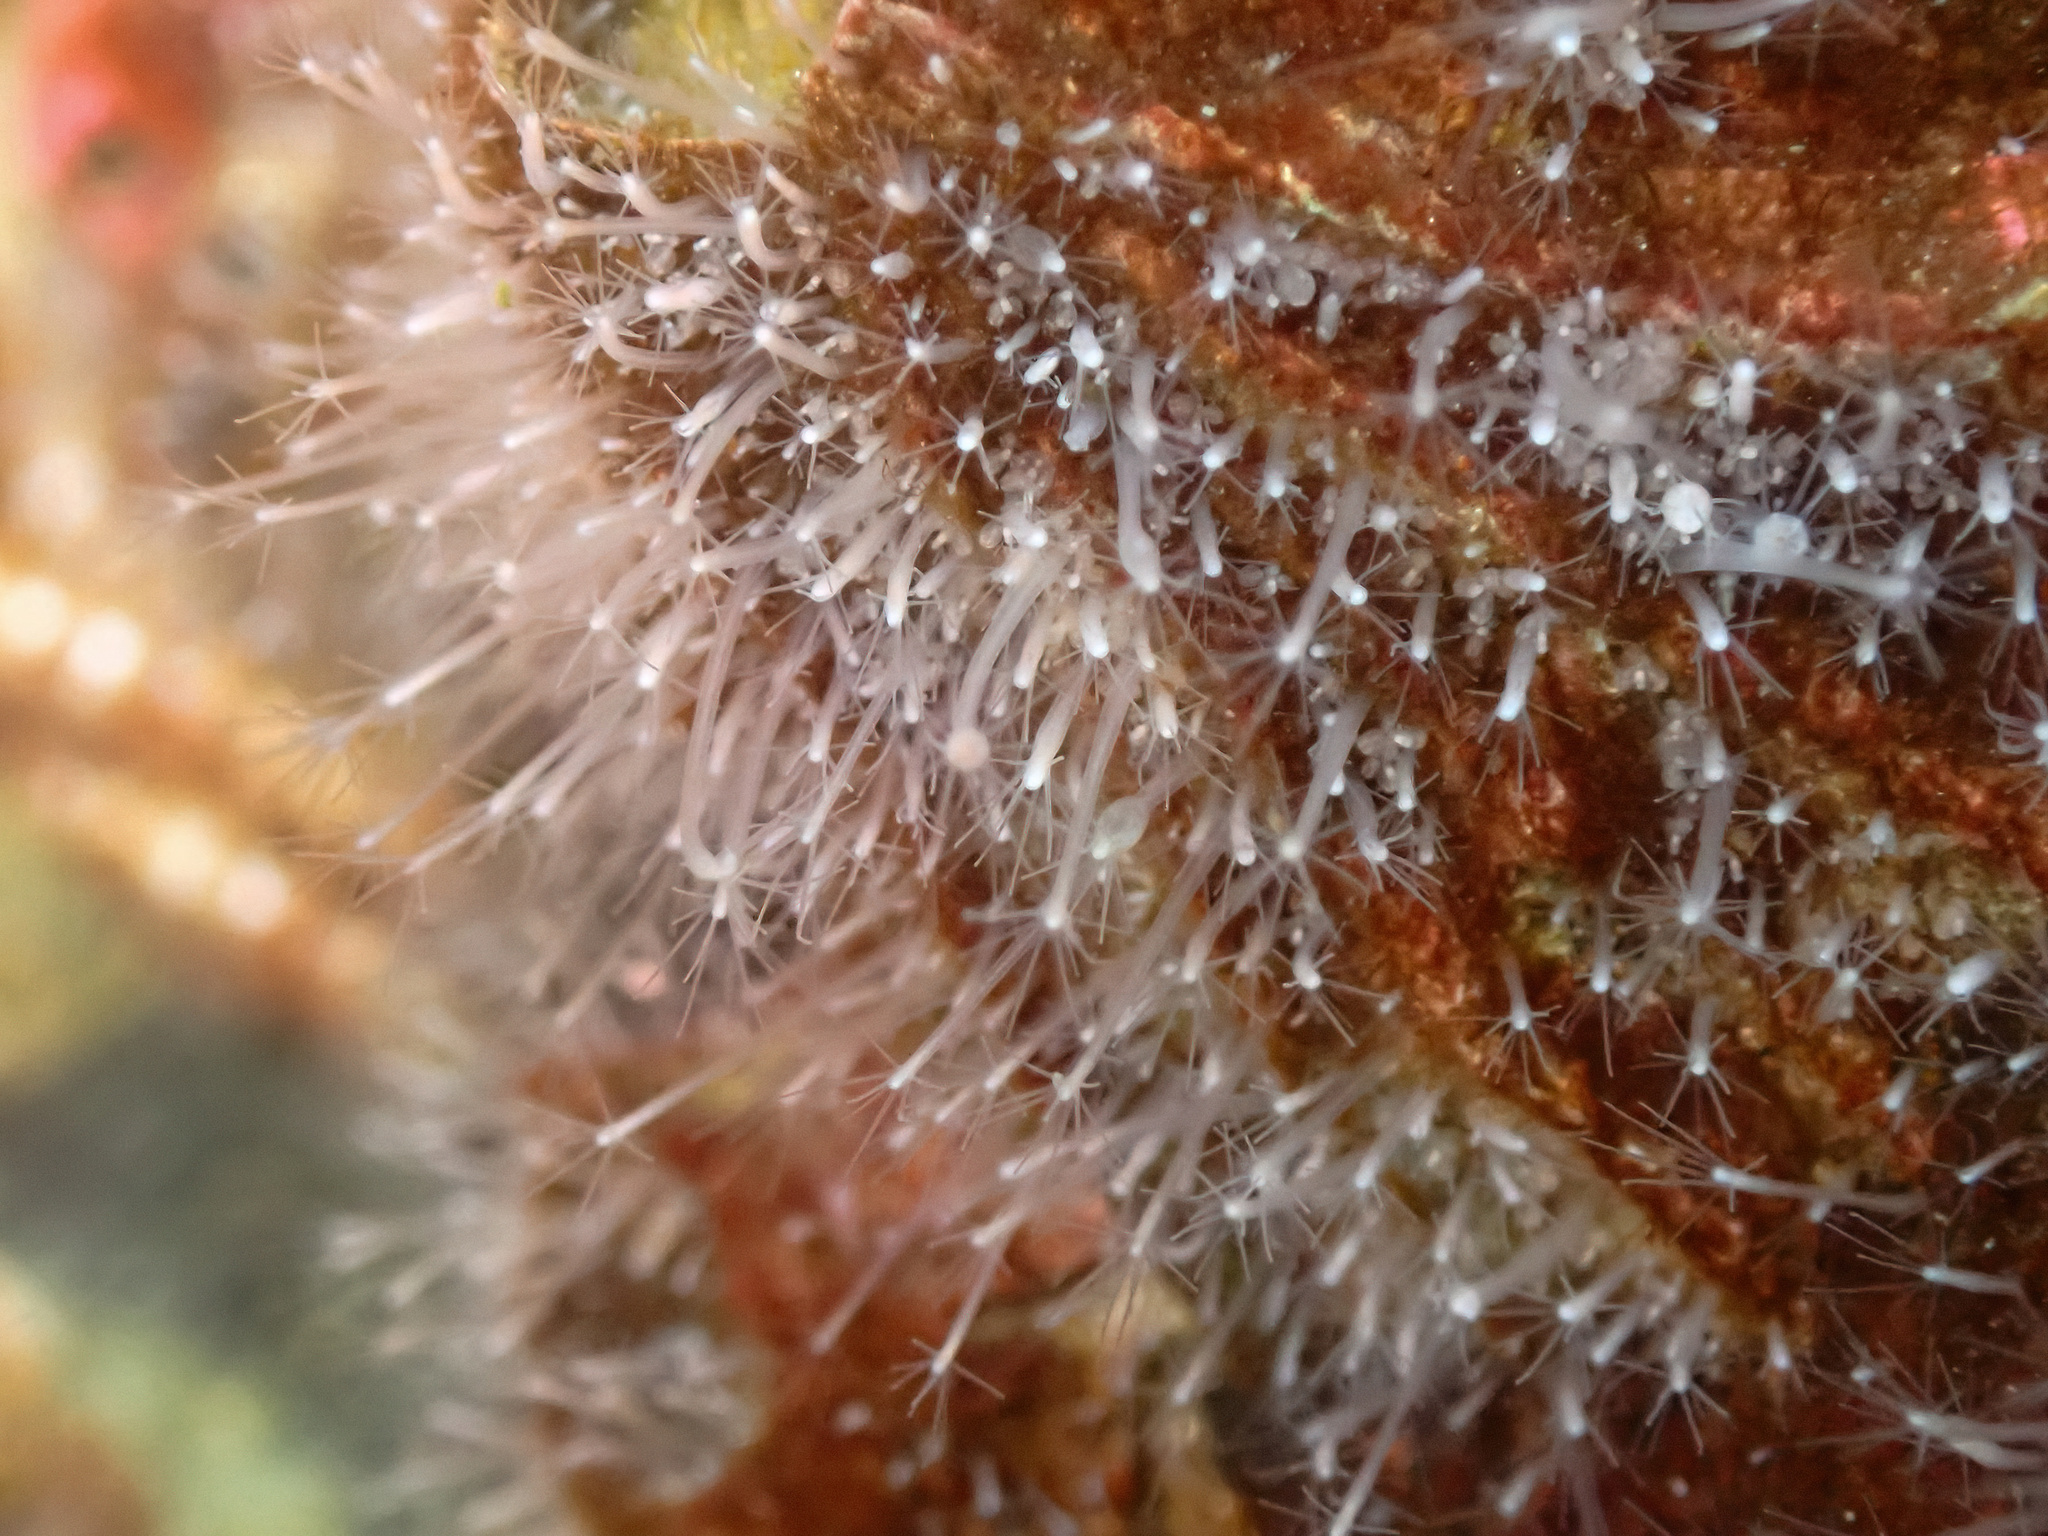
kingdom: Animalia
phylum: Cnidaria
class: Hydrozoa
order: Anthoathecata
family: Hydractiniidae
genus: Podocoryna
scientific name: Podocoryna borealis
